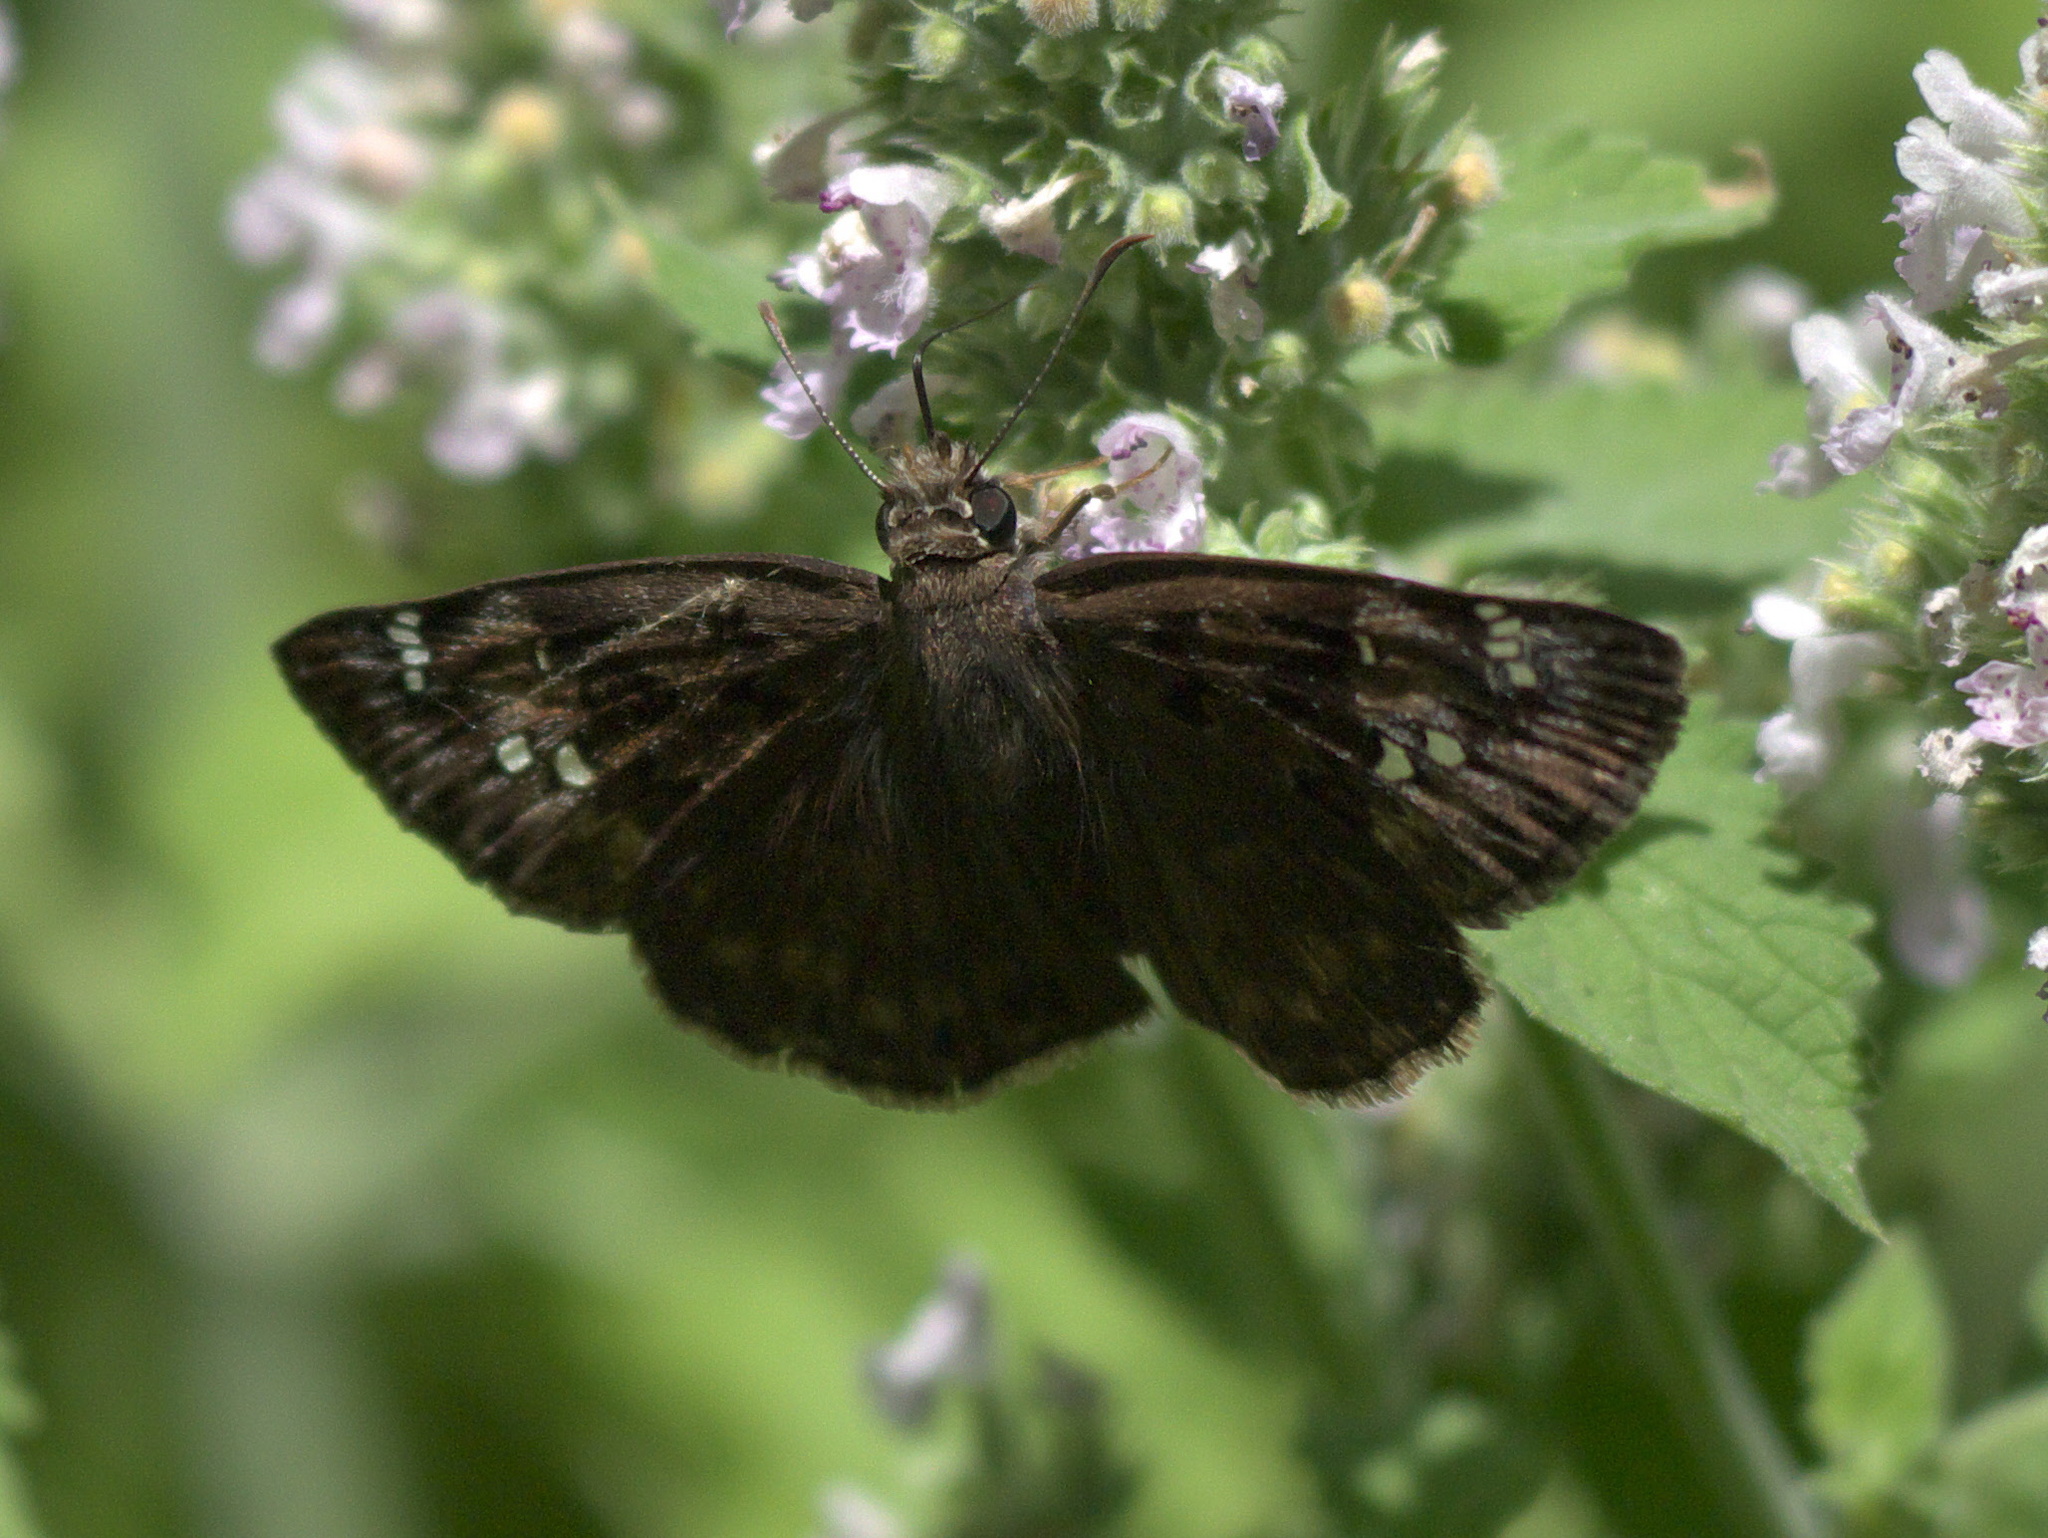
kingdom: Animalia
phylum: Arthropoda
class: Insecta
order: Lepidoptera
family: Hesperiidae
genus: Erynnis
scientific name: Erynnis horatius
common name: Horace's duskywing
